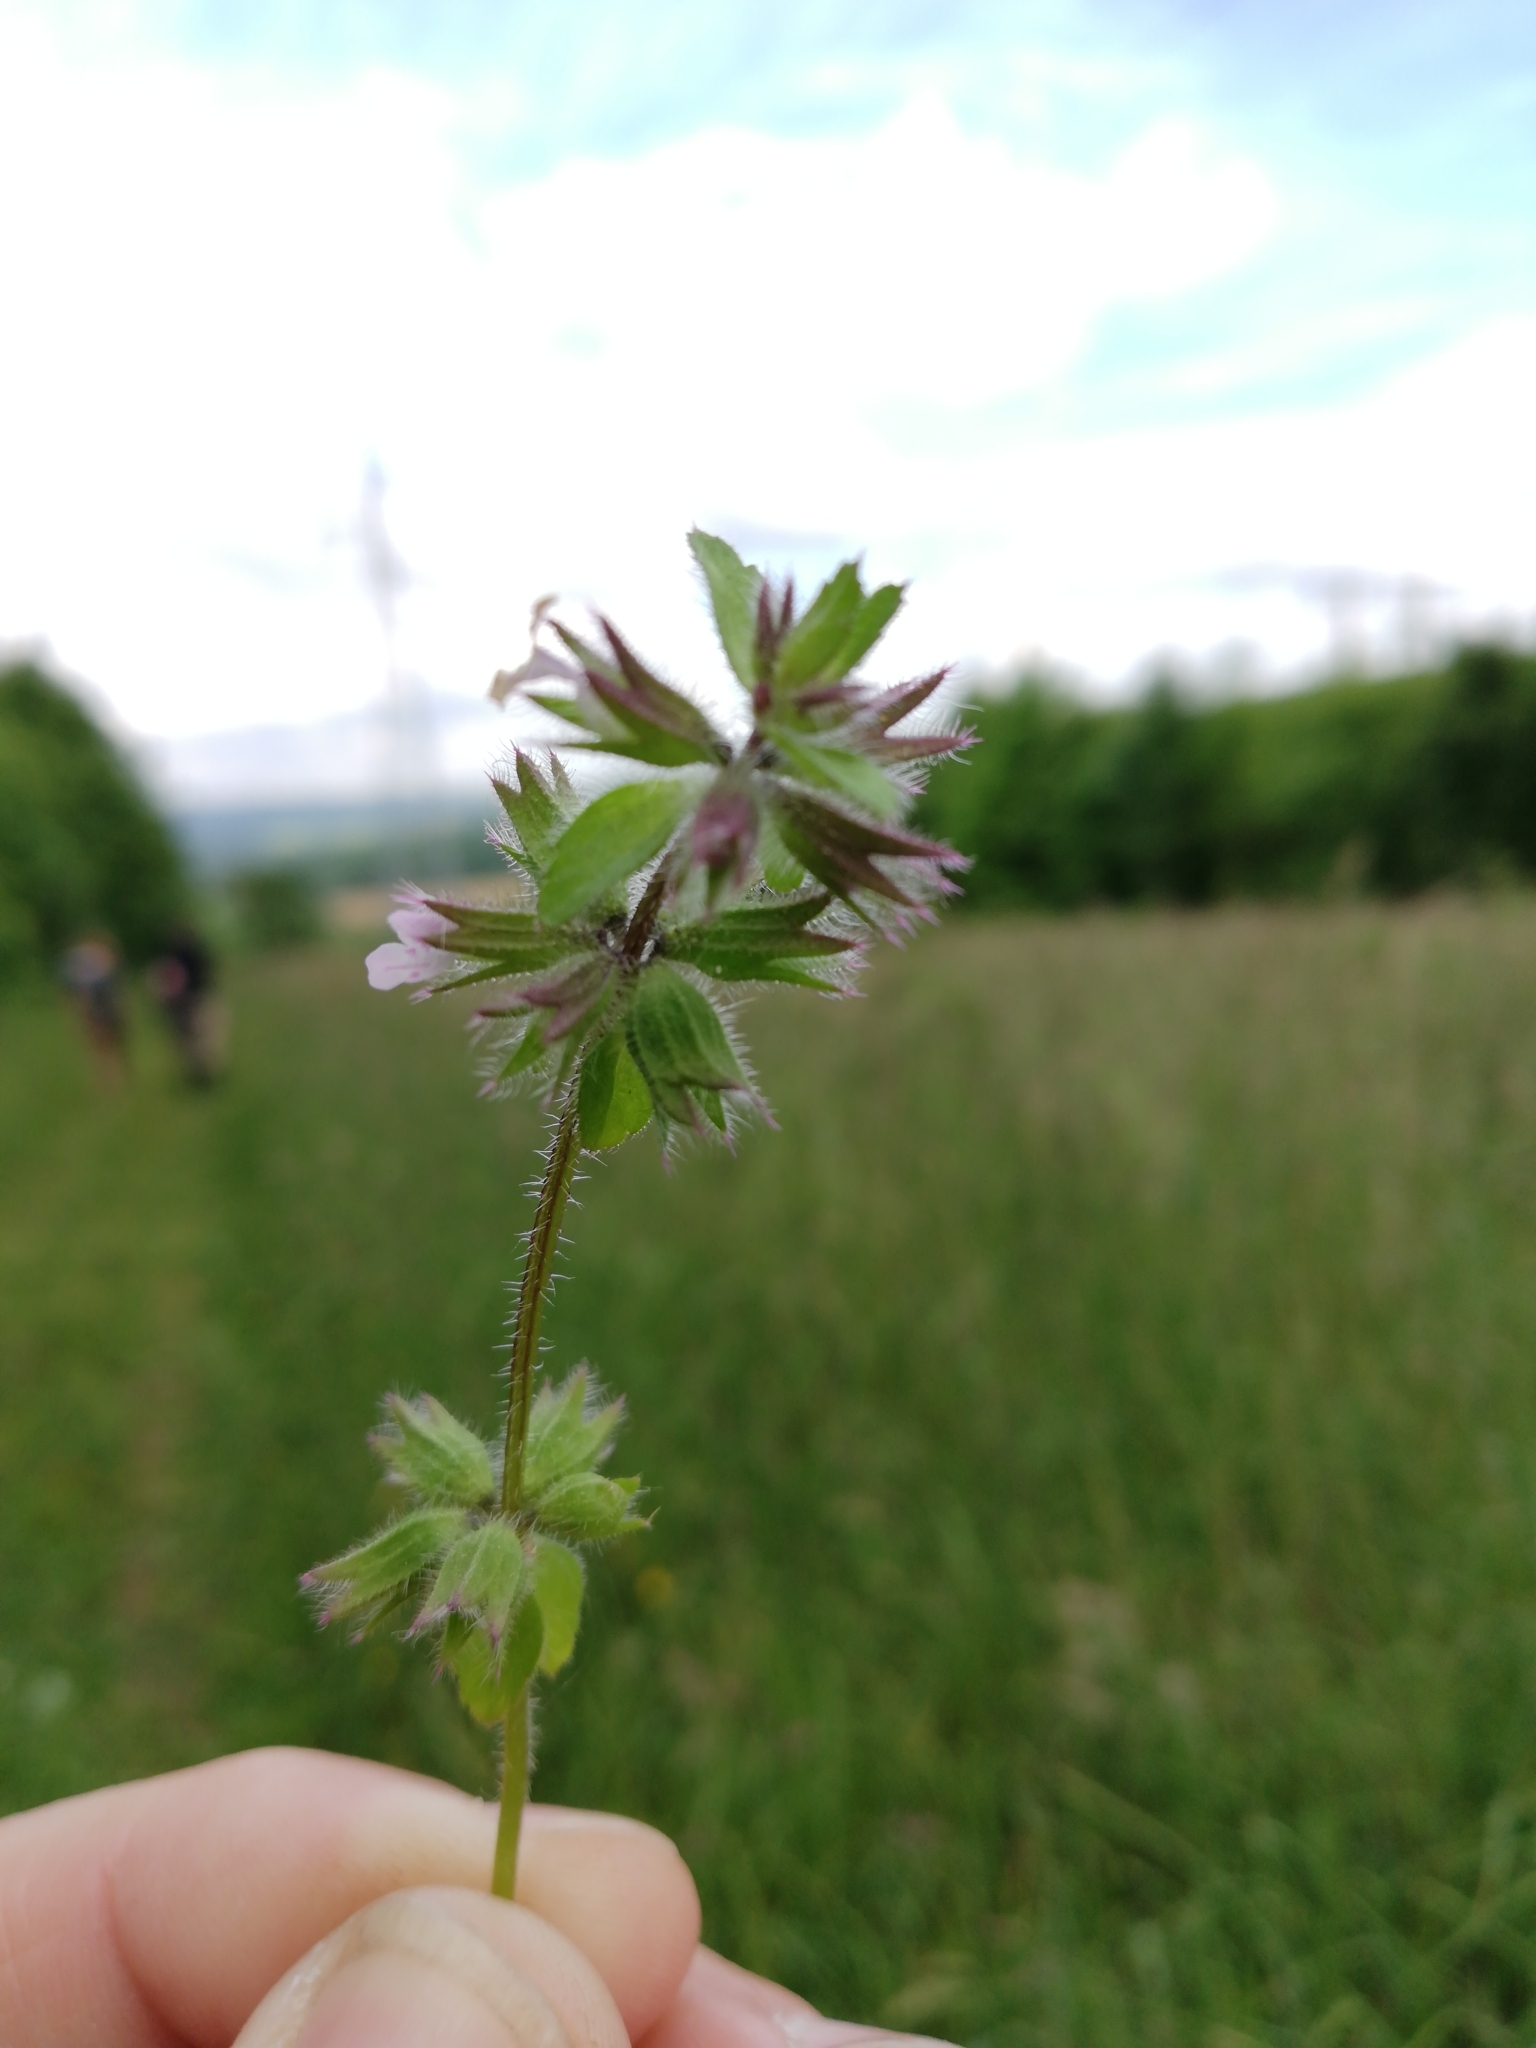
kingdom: Plantae
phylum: Tracheophyta
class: Magnoliopsida
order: Lamiales
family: Lamiaceae
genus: Stachys
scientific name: Stachys arvensis
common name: Field woundwort
